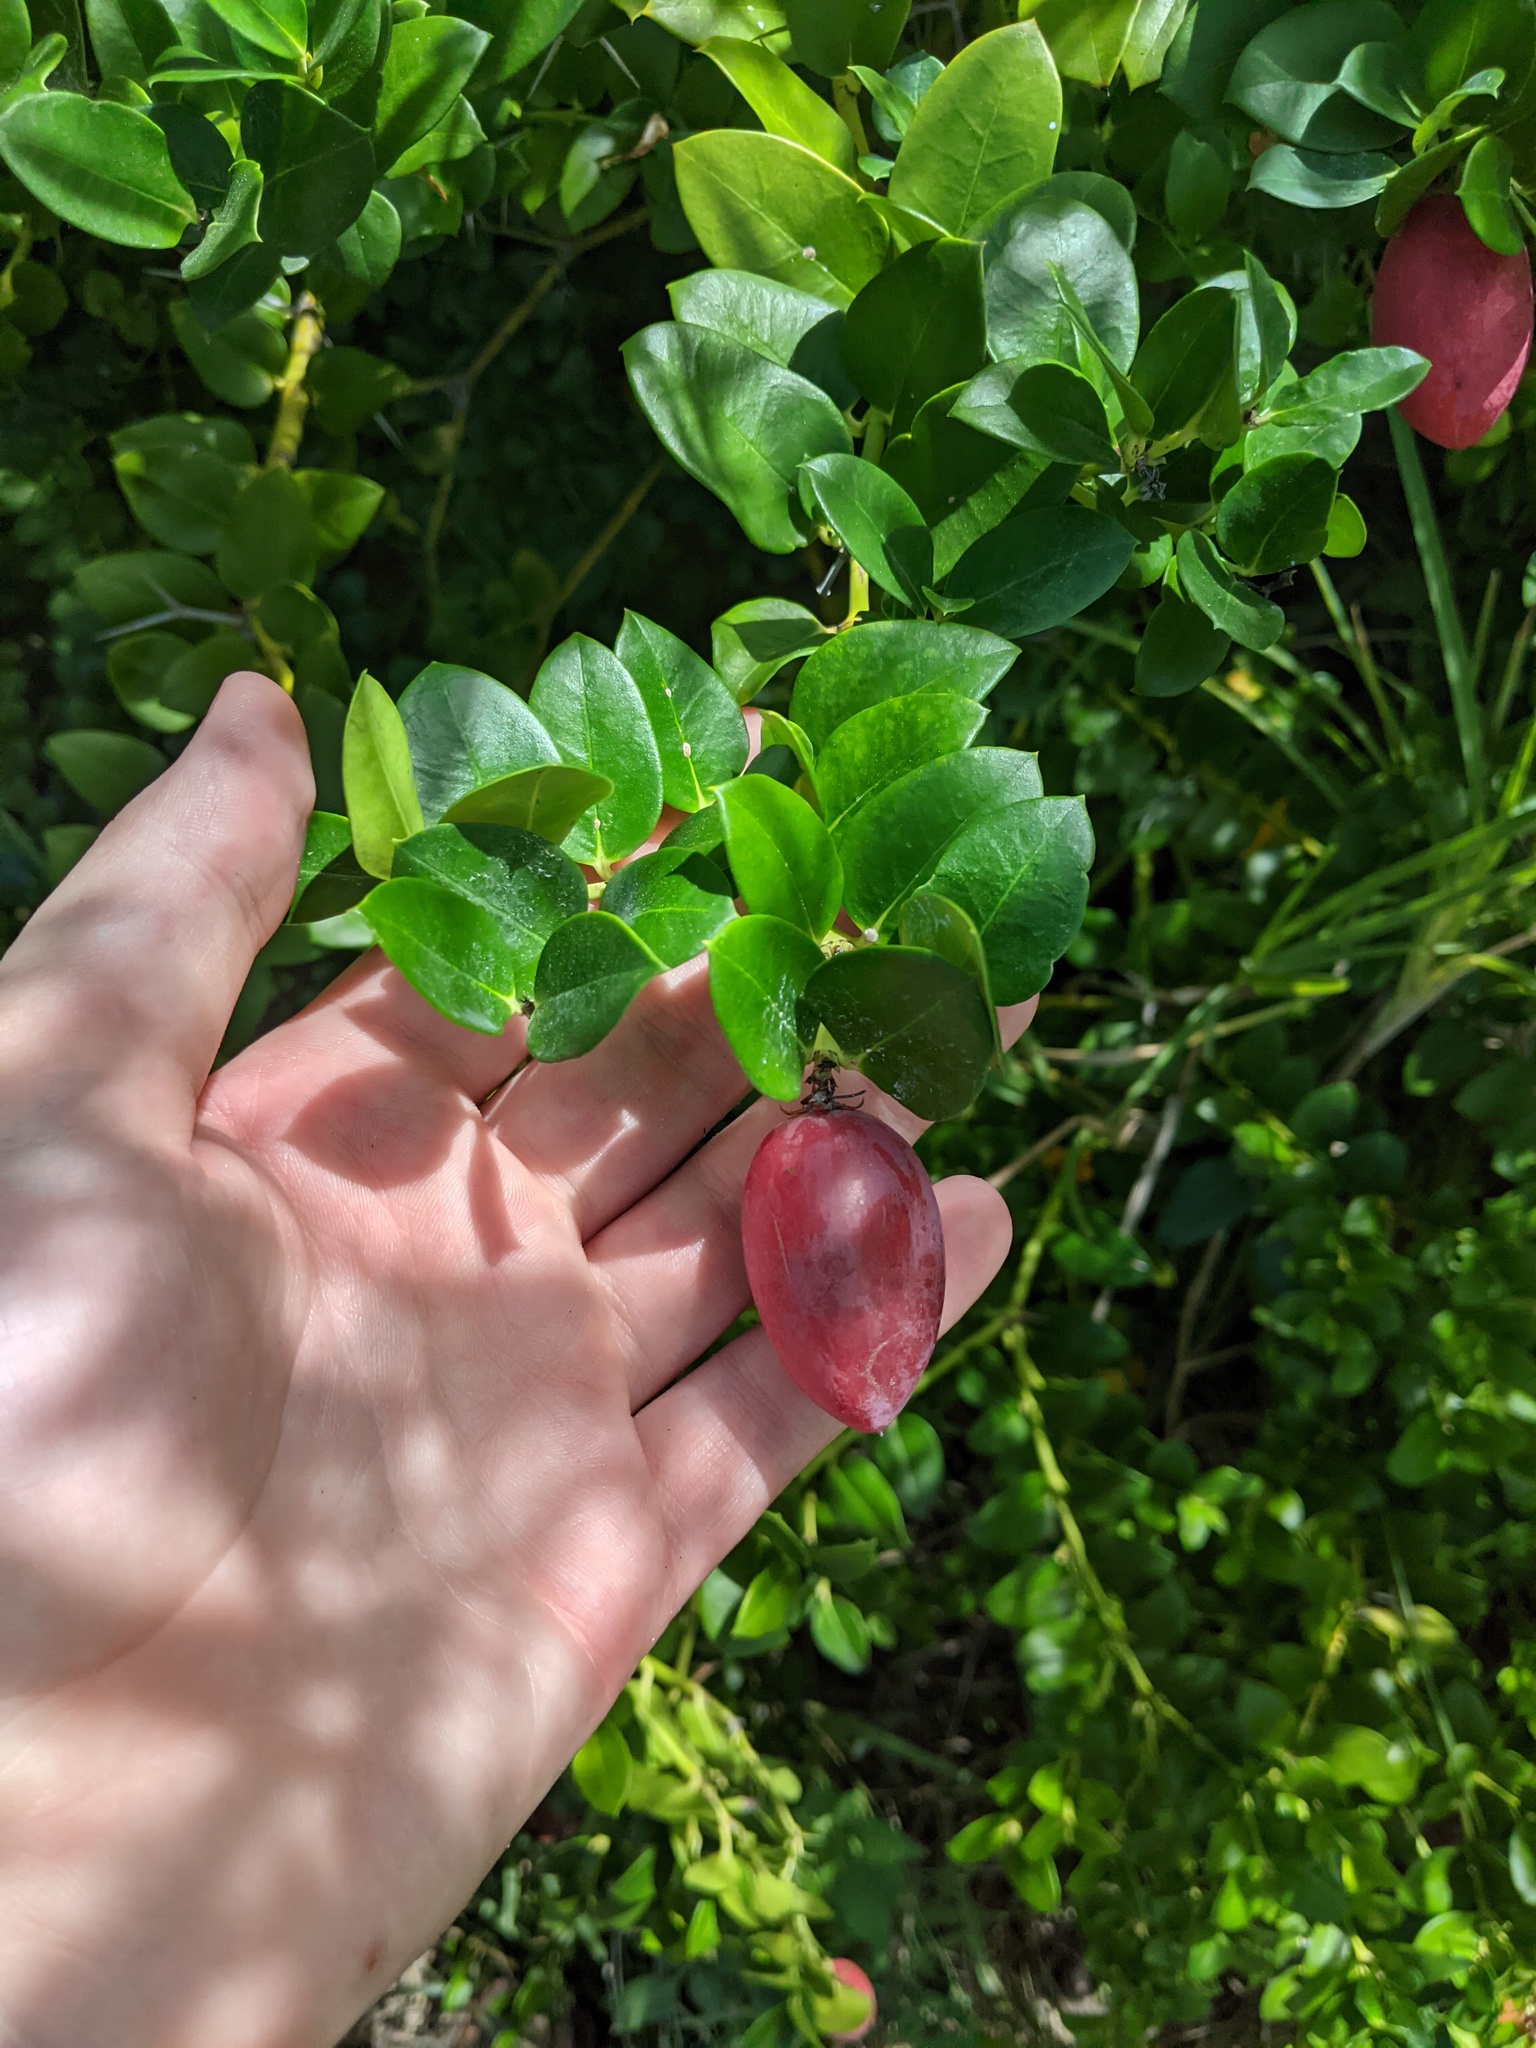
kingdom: Plantae
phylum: Tracheophyta
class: Magnoliopsida
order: Gentianales
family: Apocynaceae
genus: Carissa
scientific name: Carissa macrocarpa
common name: Natal plum
